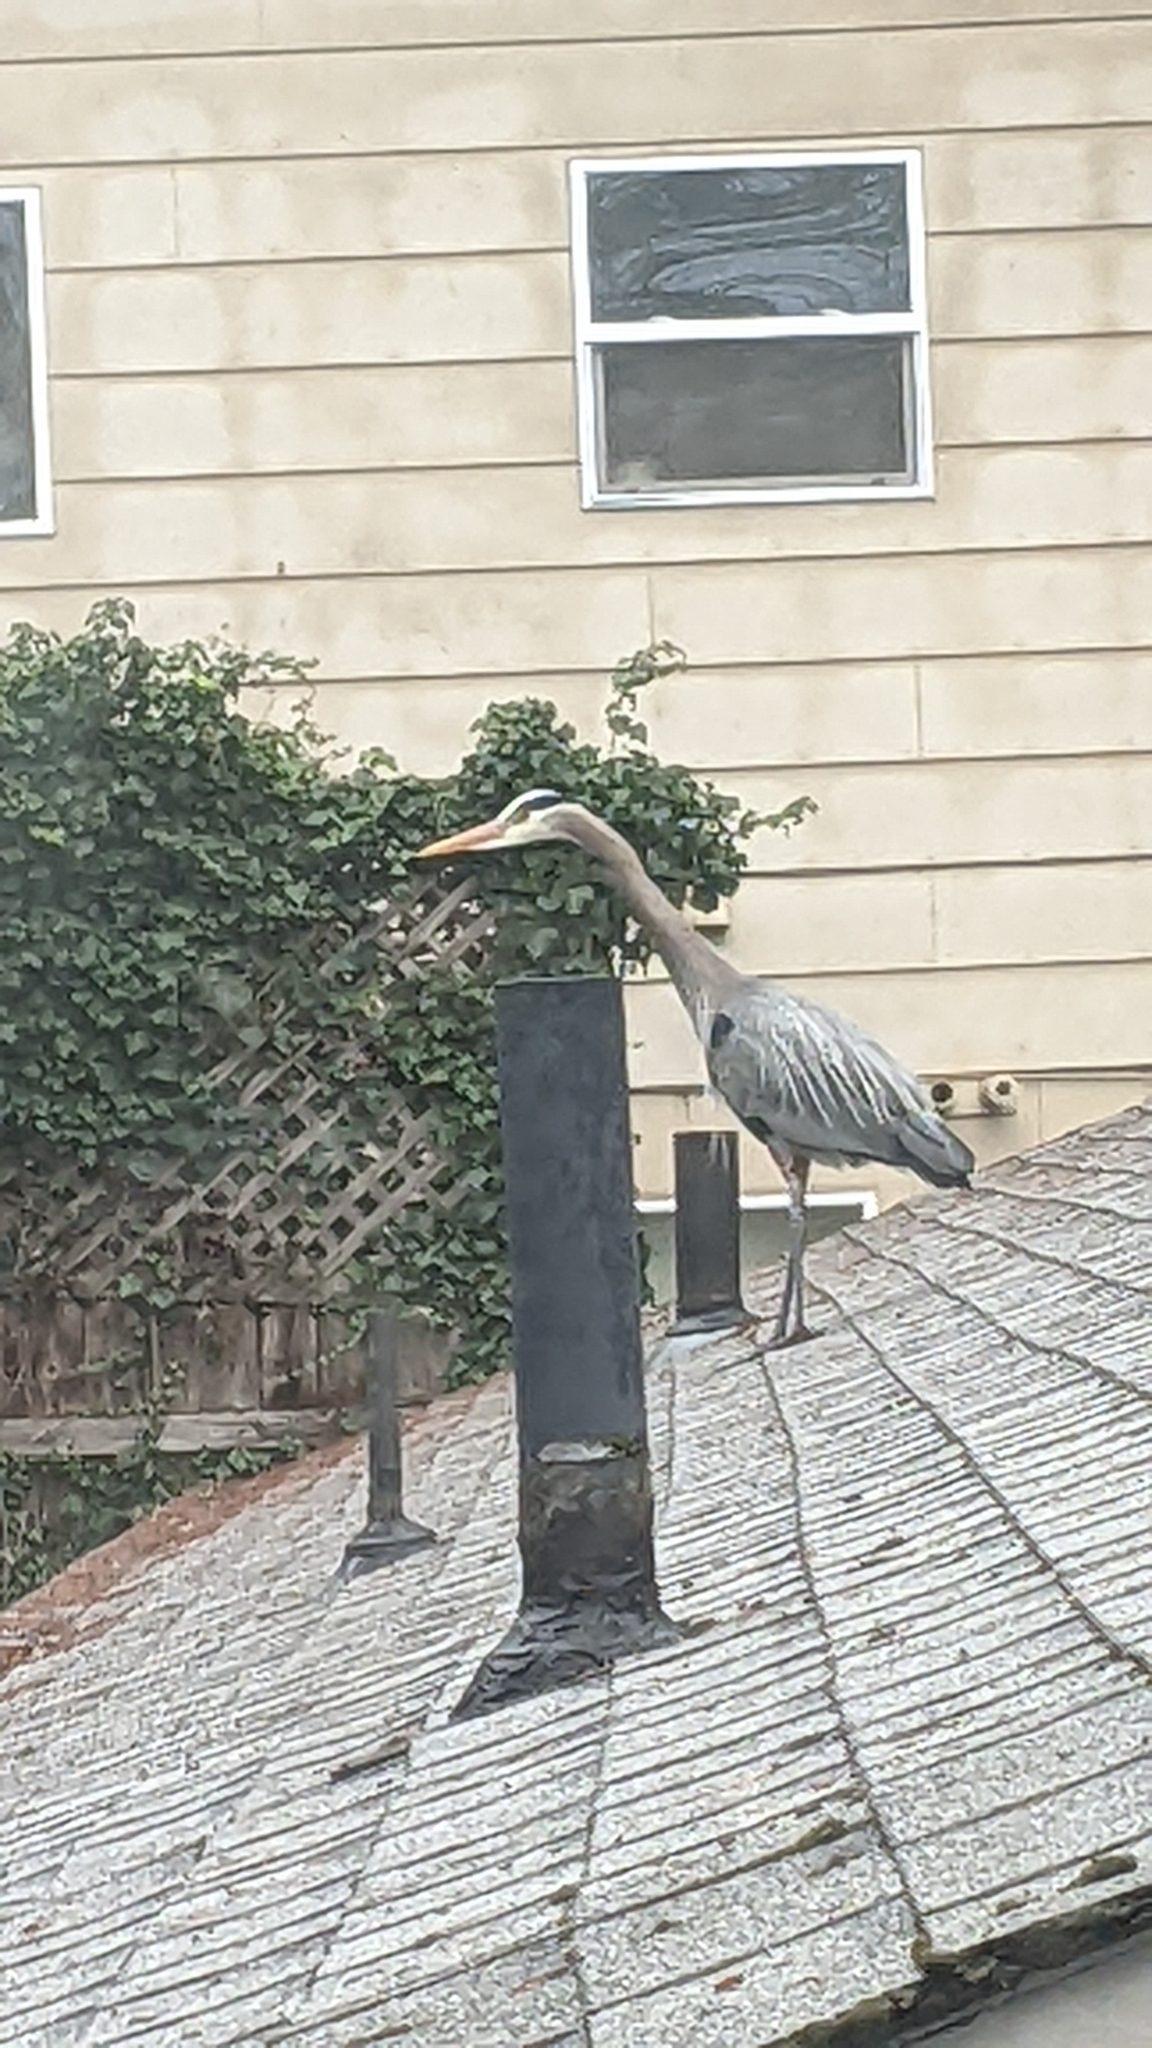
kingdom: Animalia
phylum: Chordata
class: Aves
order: Pelecaniformes
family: Ardeidae
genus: Ardea
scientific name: Ardea herodias
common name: Great blue heron
